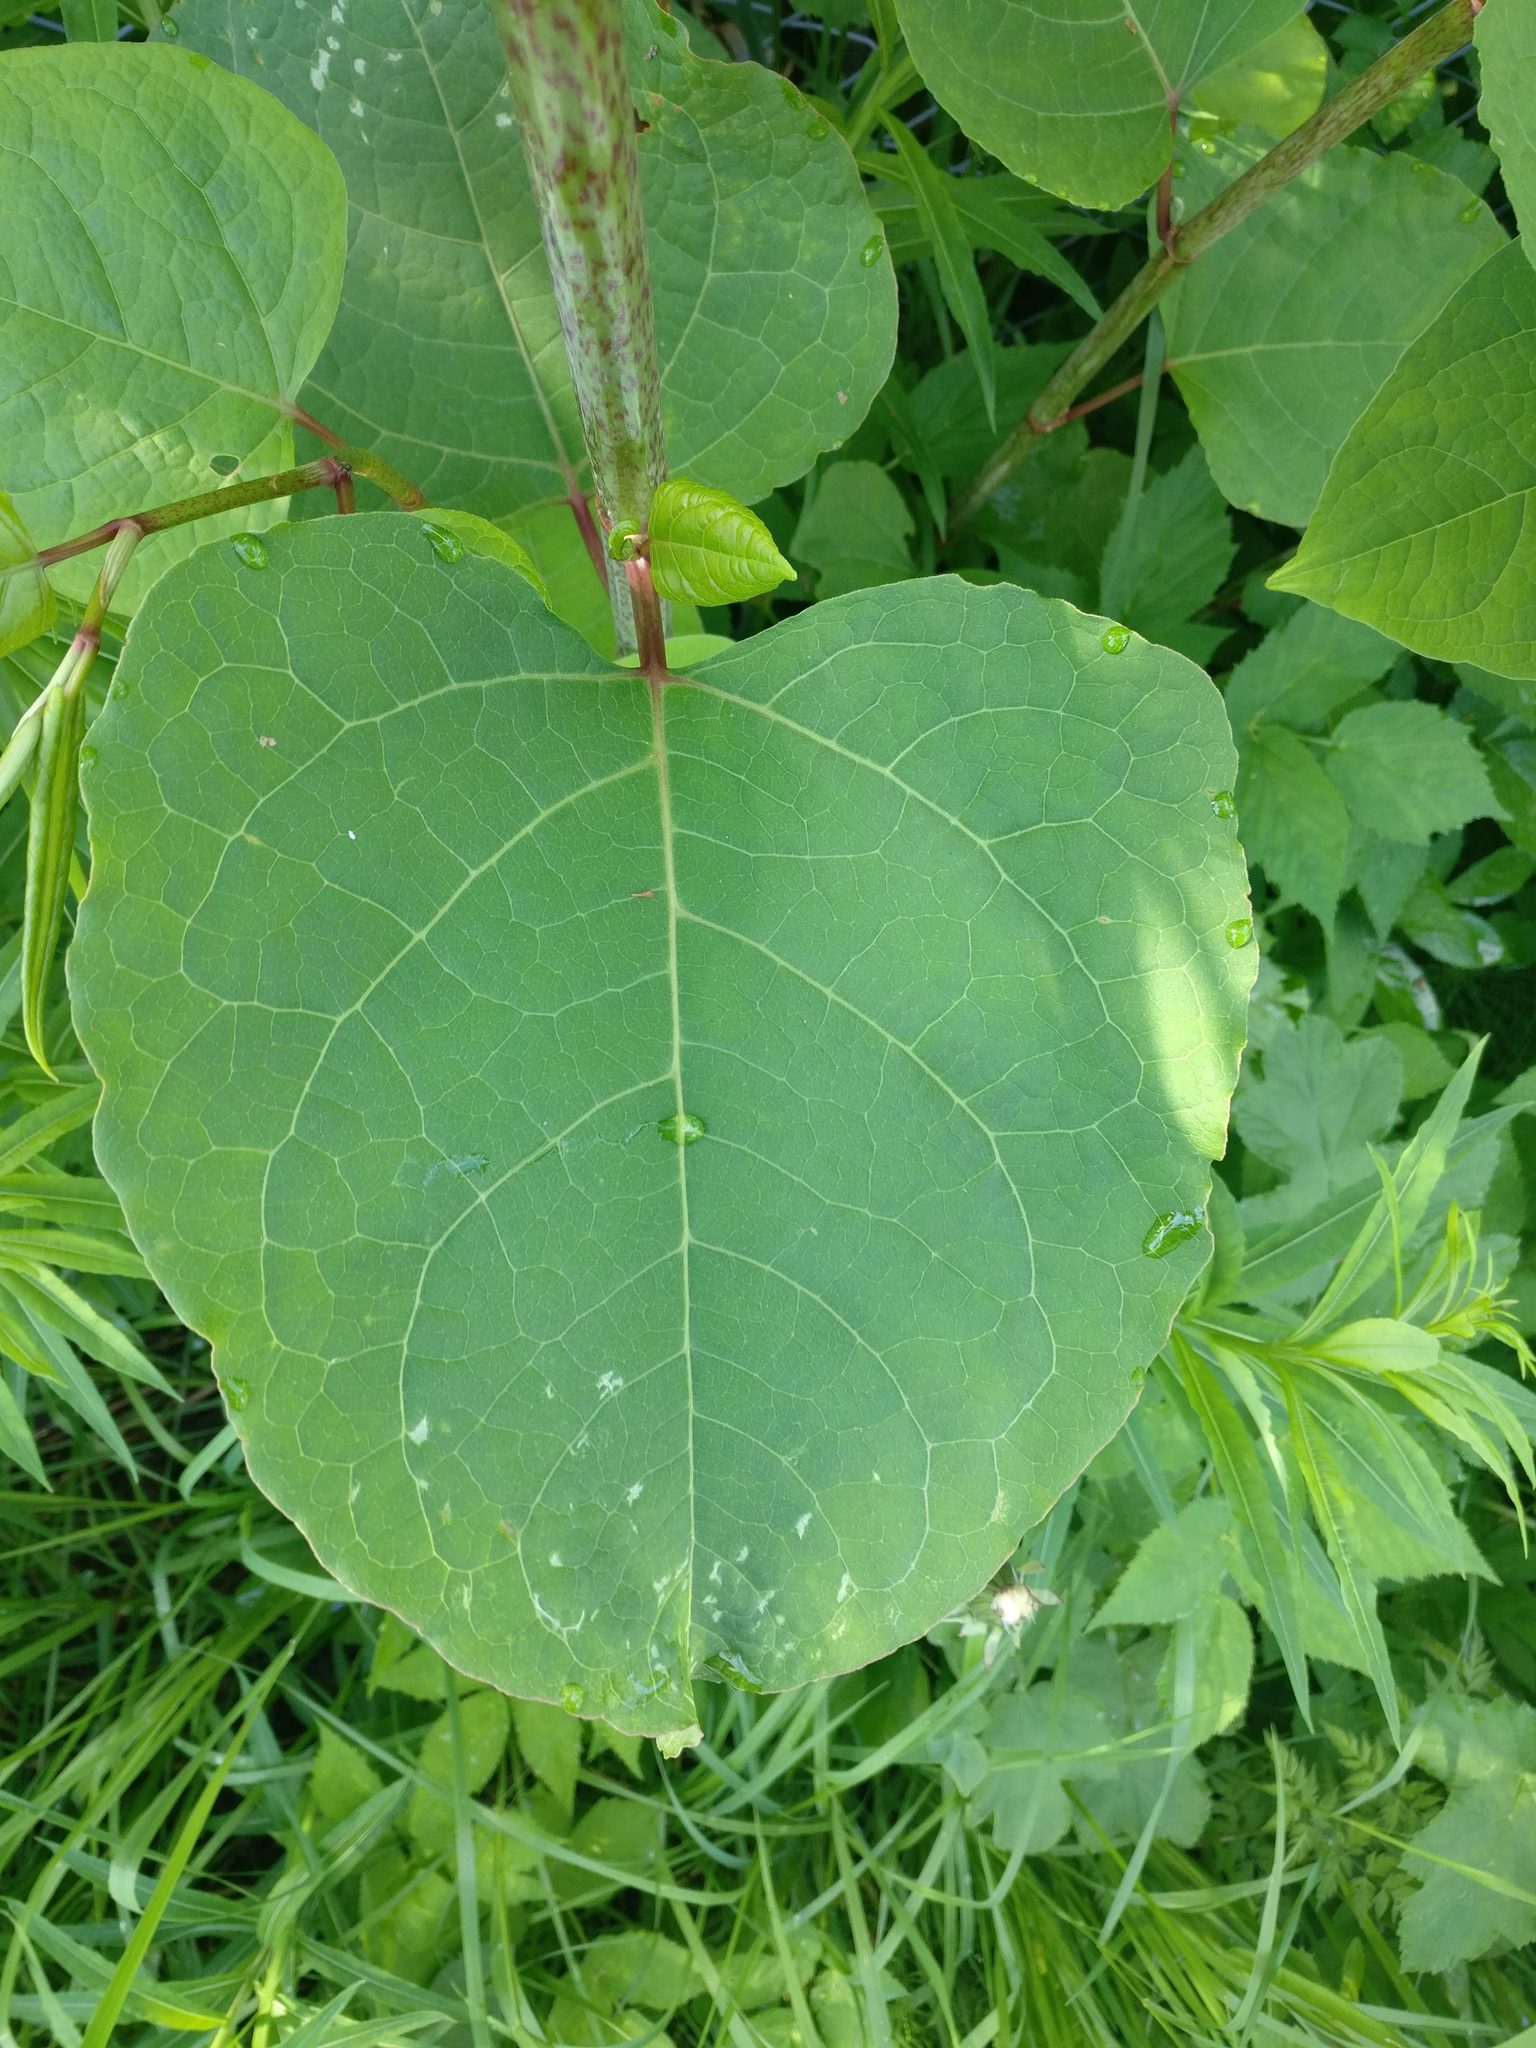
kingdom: Plantae
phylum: Tracheophyta
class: Magnoliopsida
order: Caryophyllales
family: Polygonaceae
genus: Reynoutria
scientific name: Reynoutria japonica
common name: Japanese knotweed
